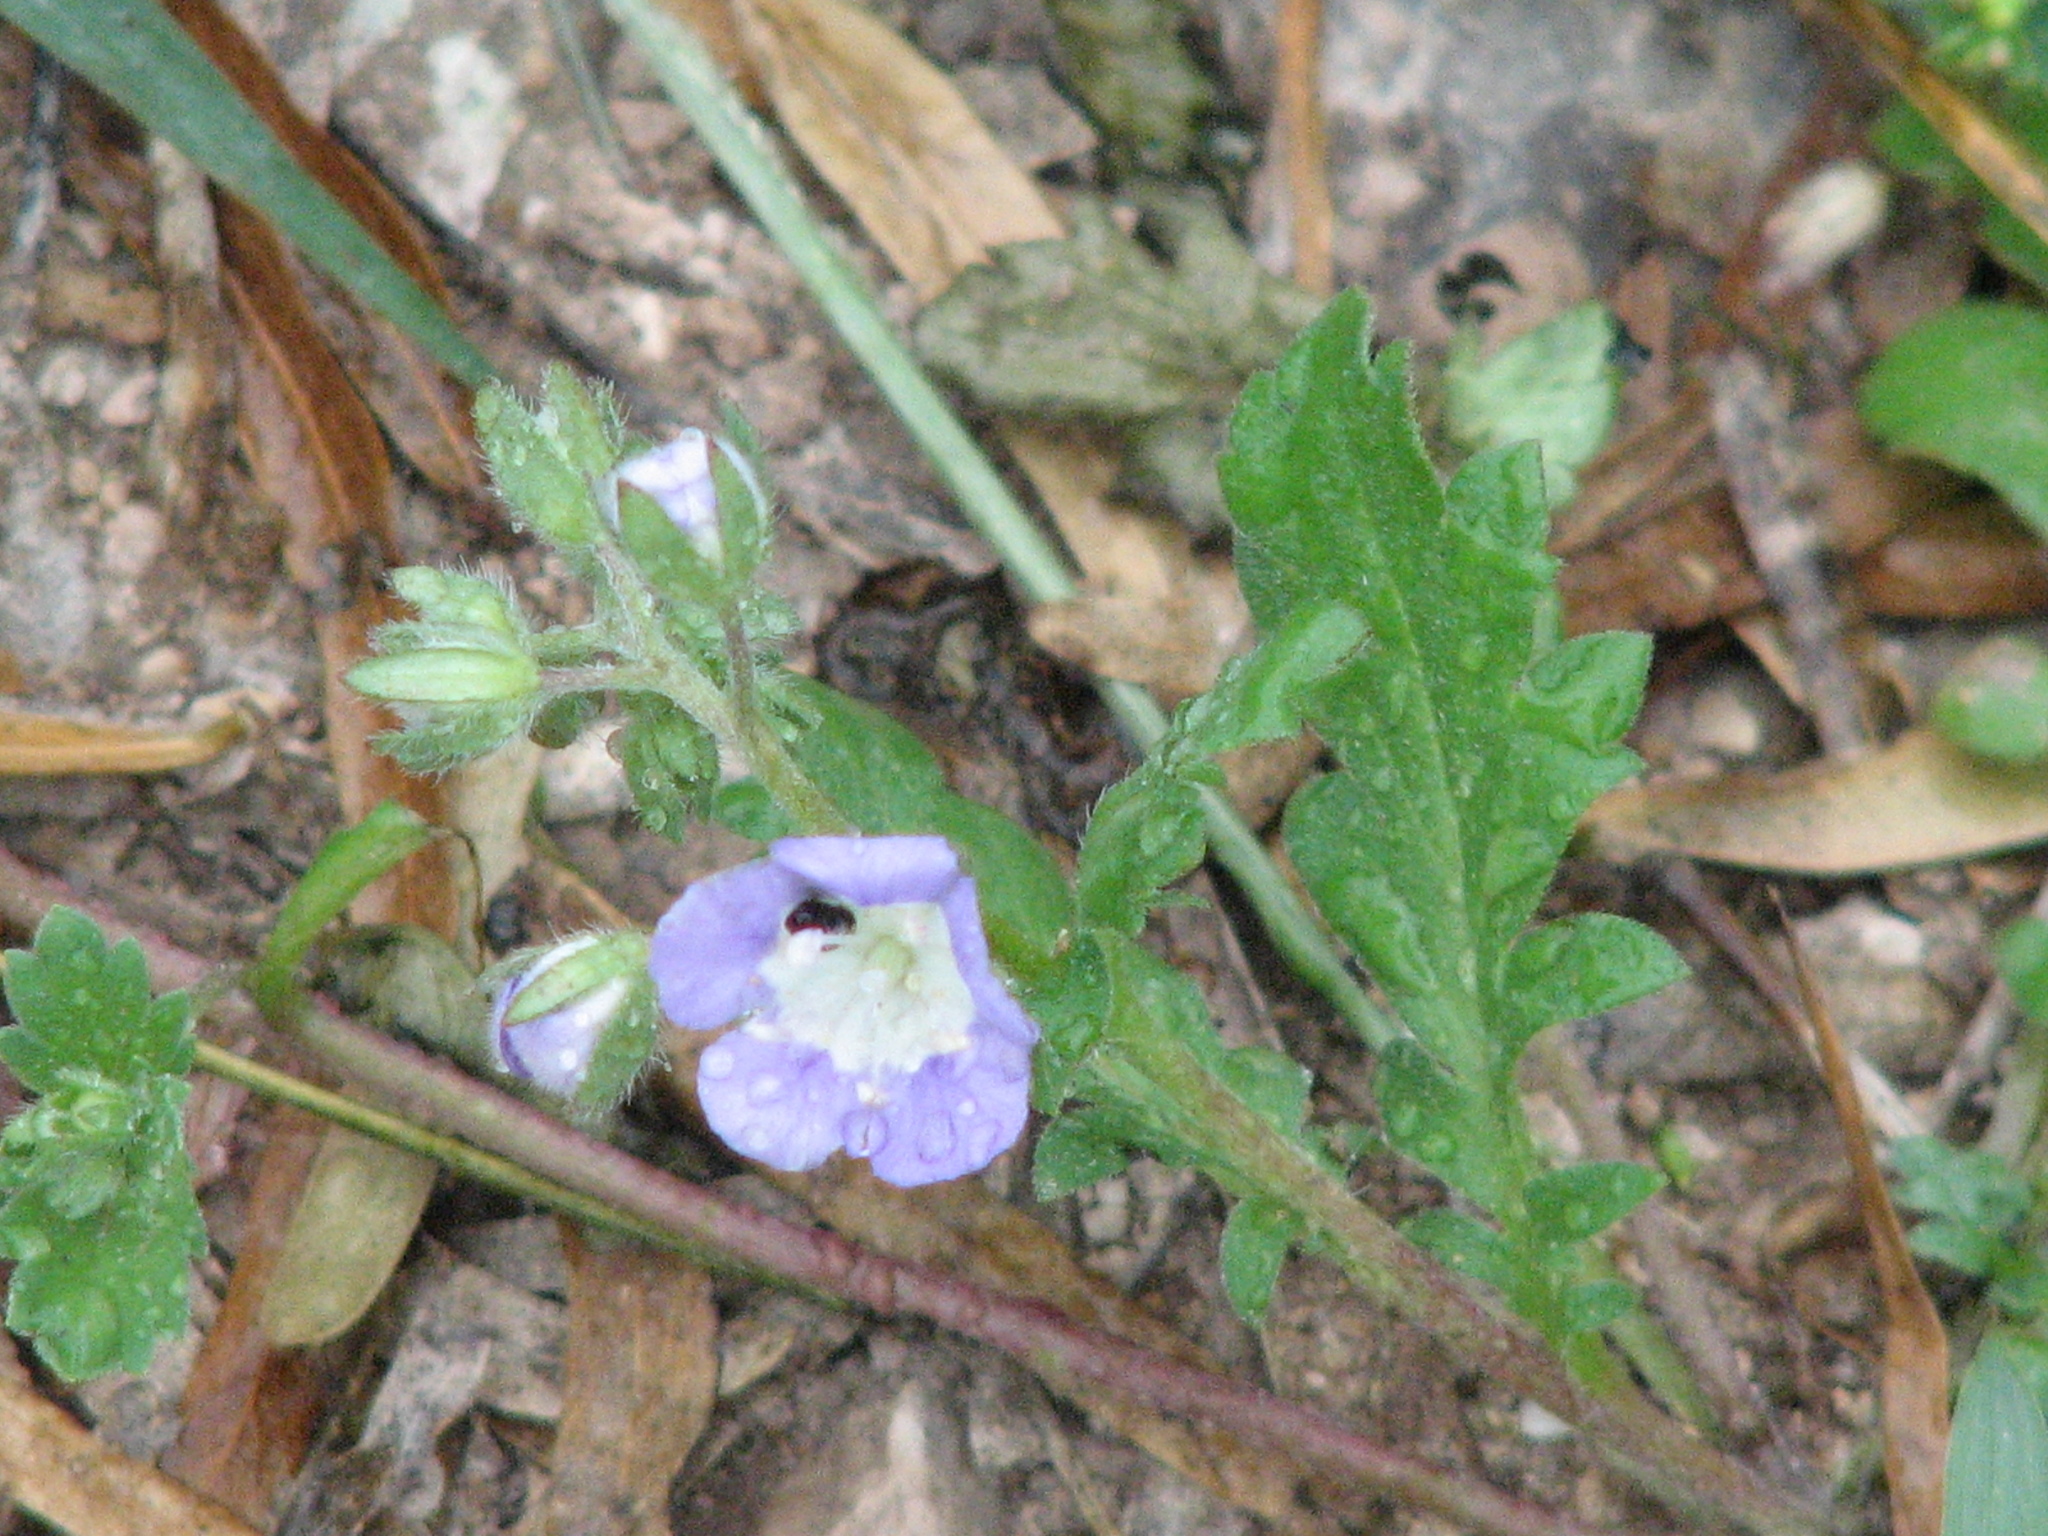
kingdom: Plantae
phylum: Tracheophyta
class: Magnoliopsida
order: Boraginales
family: Hydrophyllaceae
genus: Phacelia
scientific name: Phacelia patuliflora
